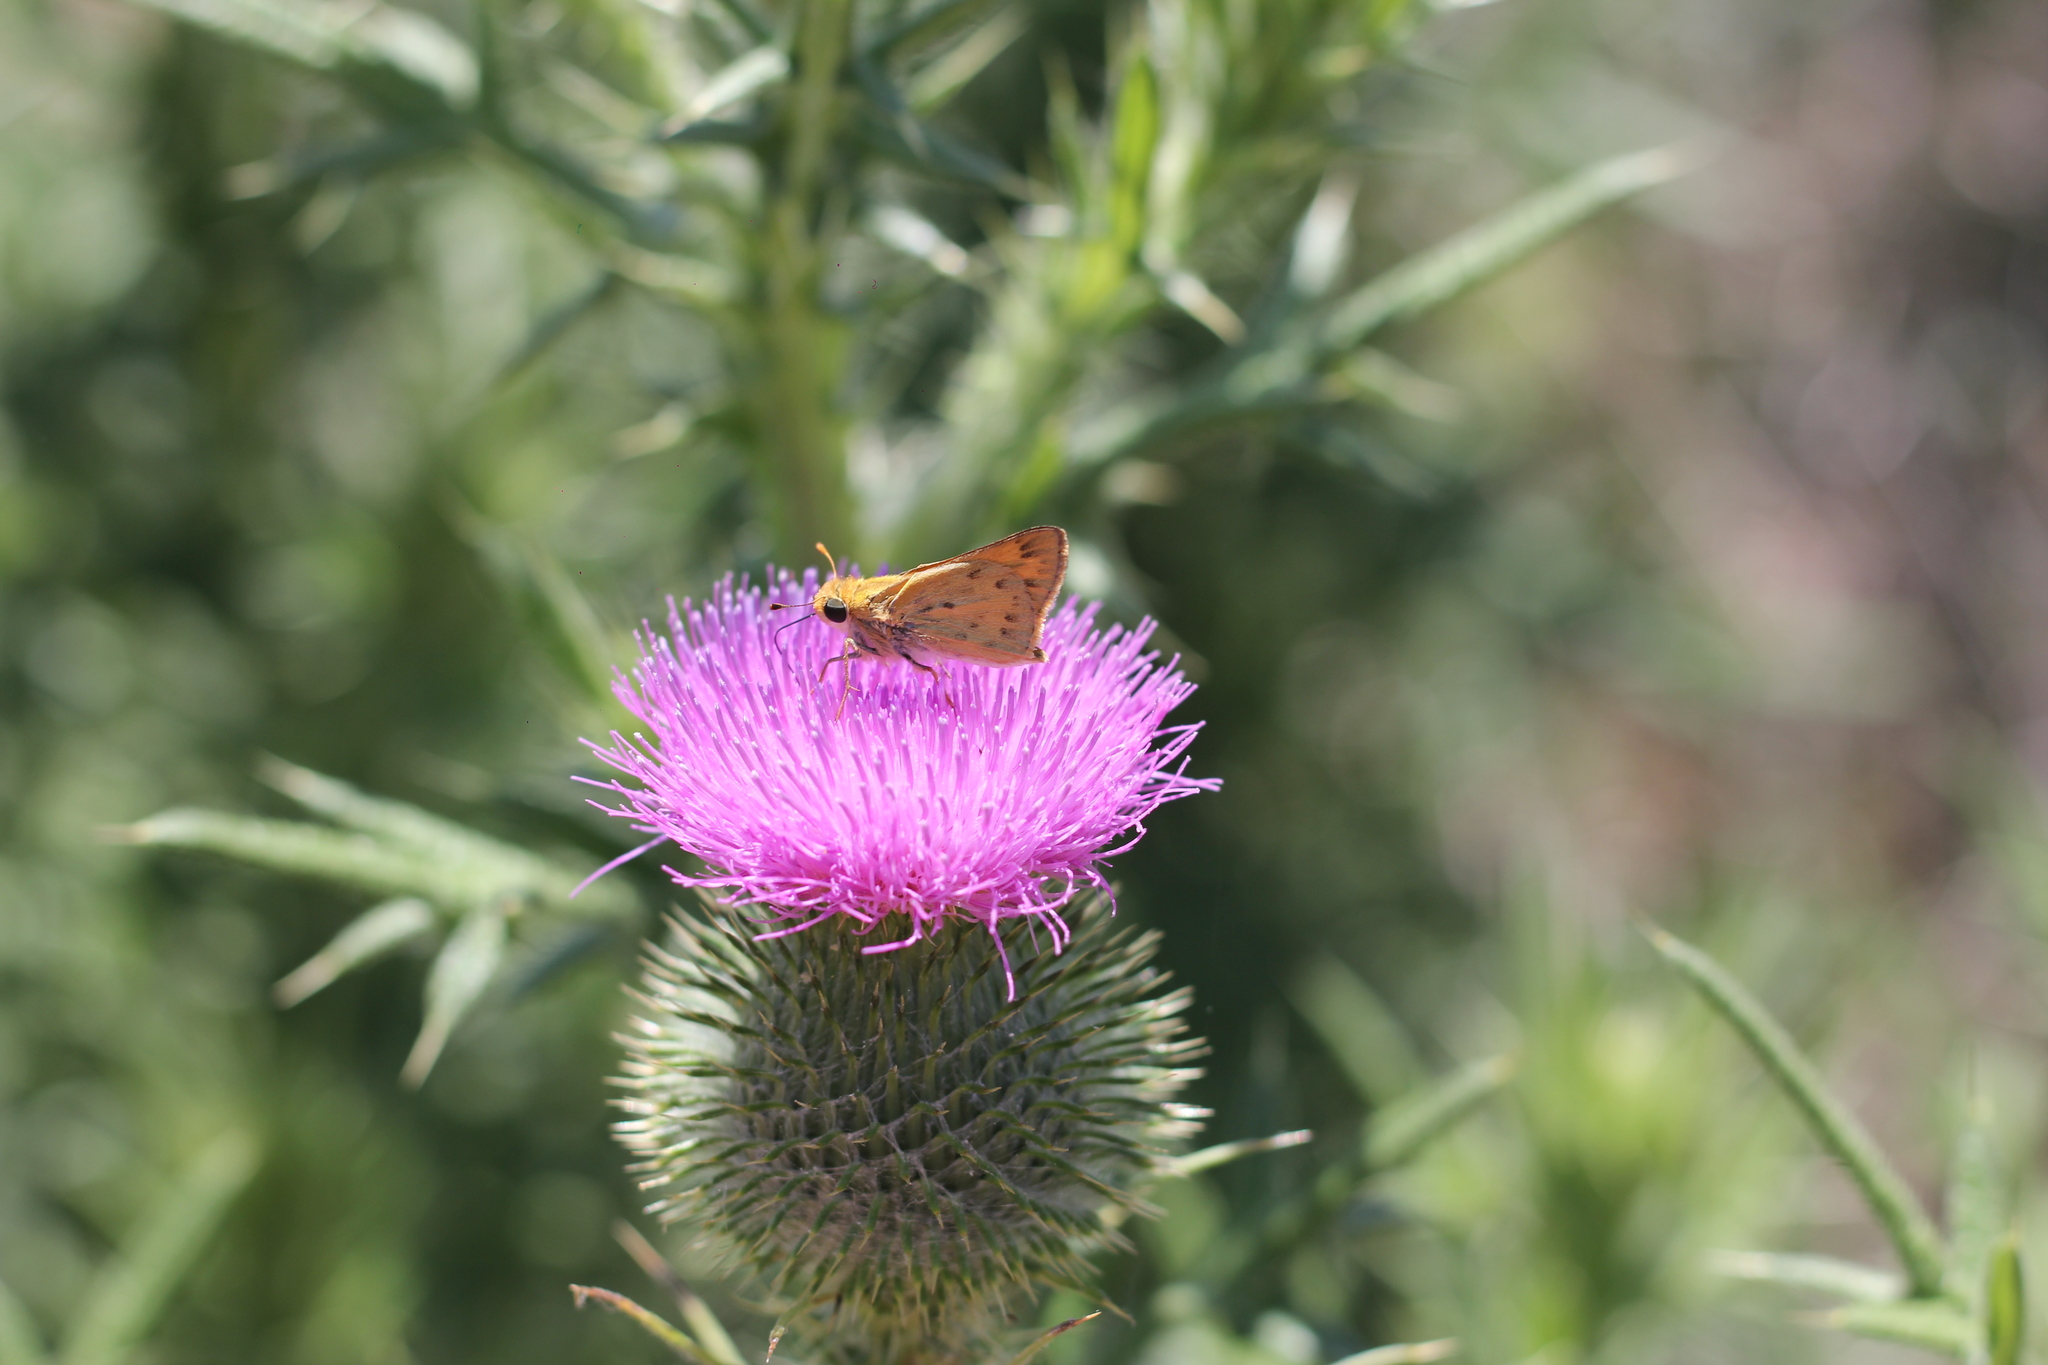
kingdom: Animalia
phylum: Arthropoda
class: Insecta
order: Lepidoptera
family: Hesperiidae
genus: Hylephila
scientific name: Hylephila phyleus
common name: Fiery skipper
